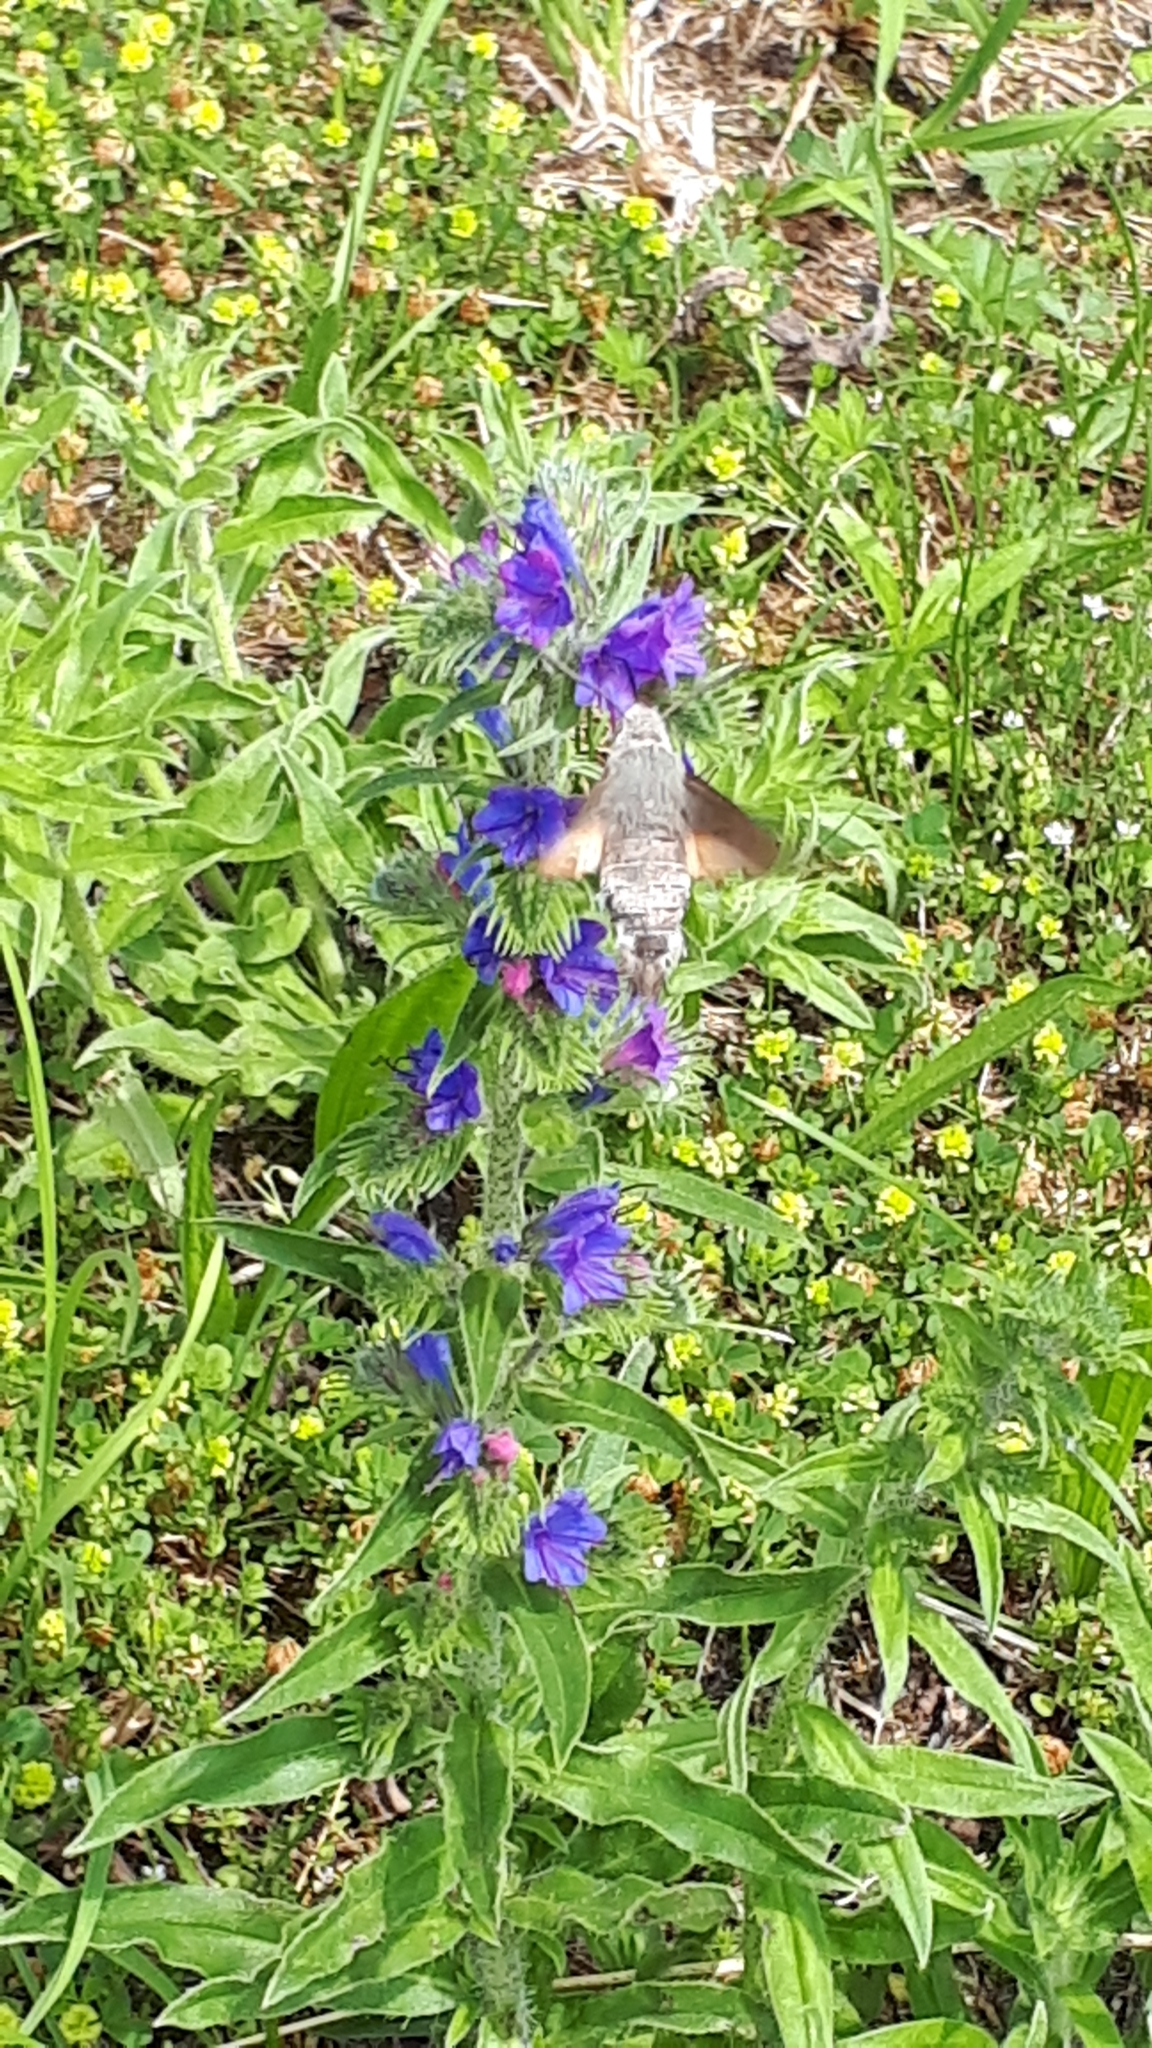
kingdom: Animalia
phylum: Arthropoda
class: Insecta
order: Lepidoptera
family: Sphingidae
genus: Macroglossum
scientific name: Macroglossum stellatarum
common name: Humming-bird hawk-moth
